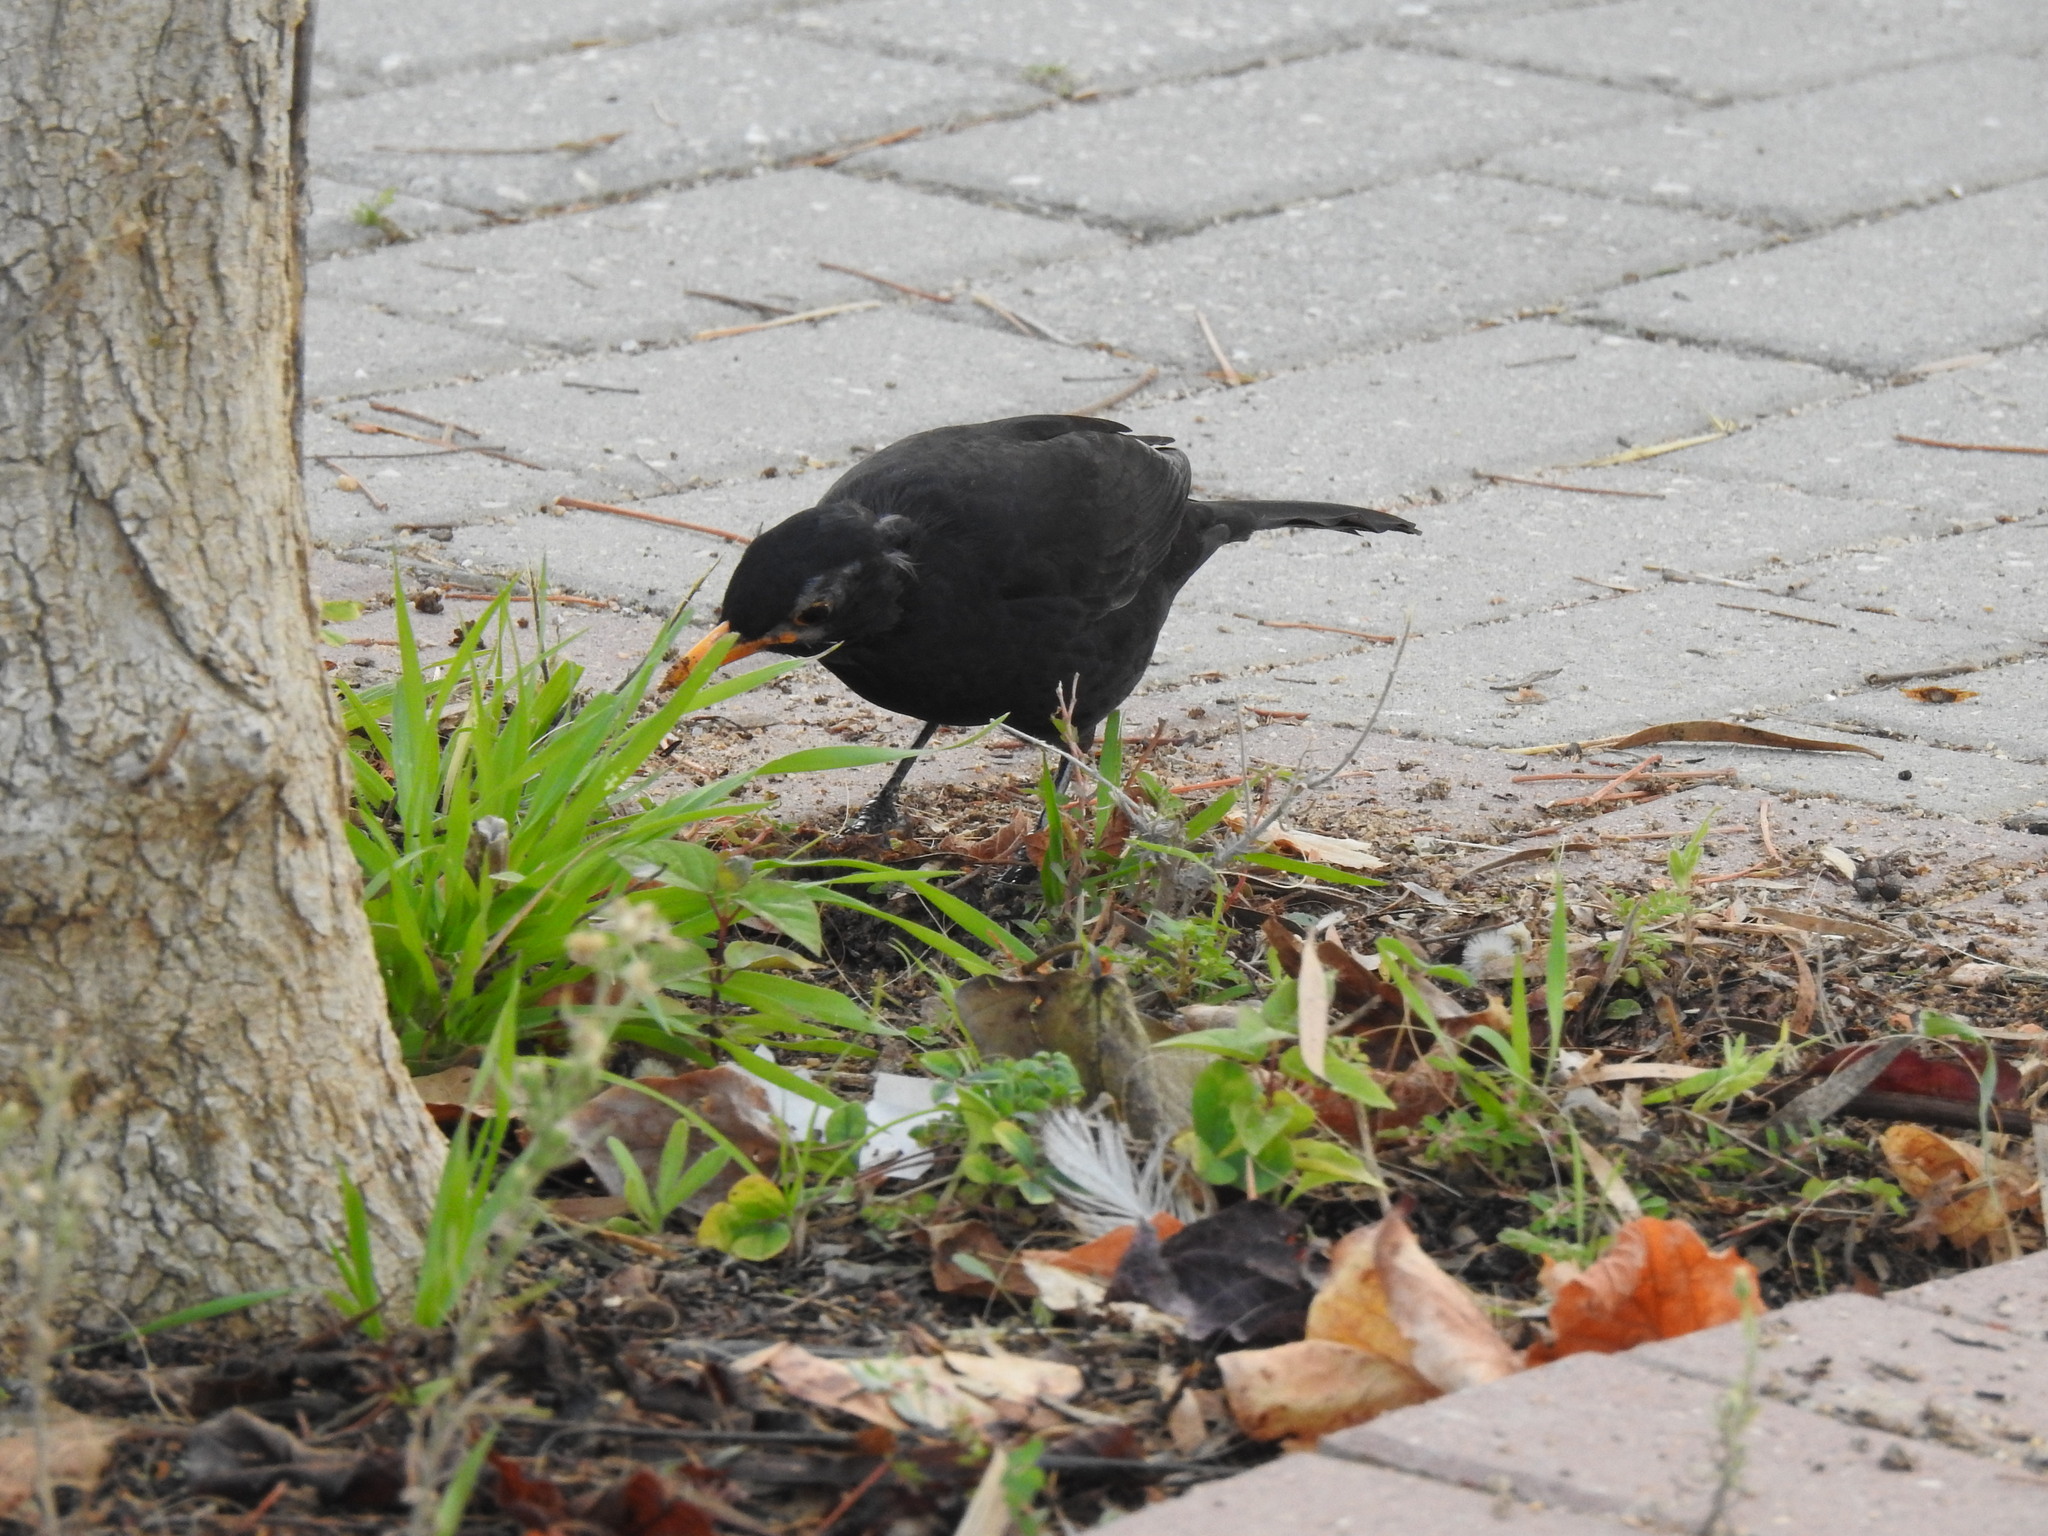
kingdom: Animalia
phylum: Chordata
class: Aves
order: Passeriformes
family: Turdidae
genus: Turdus
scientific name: Turdus merula
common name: Common blackbird
